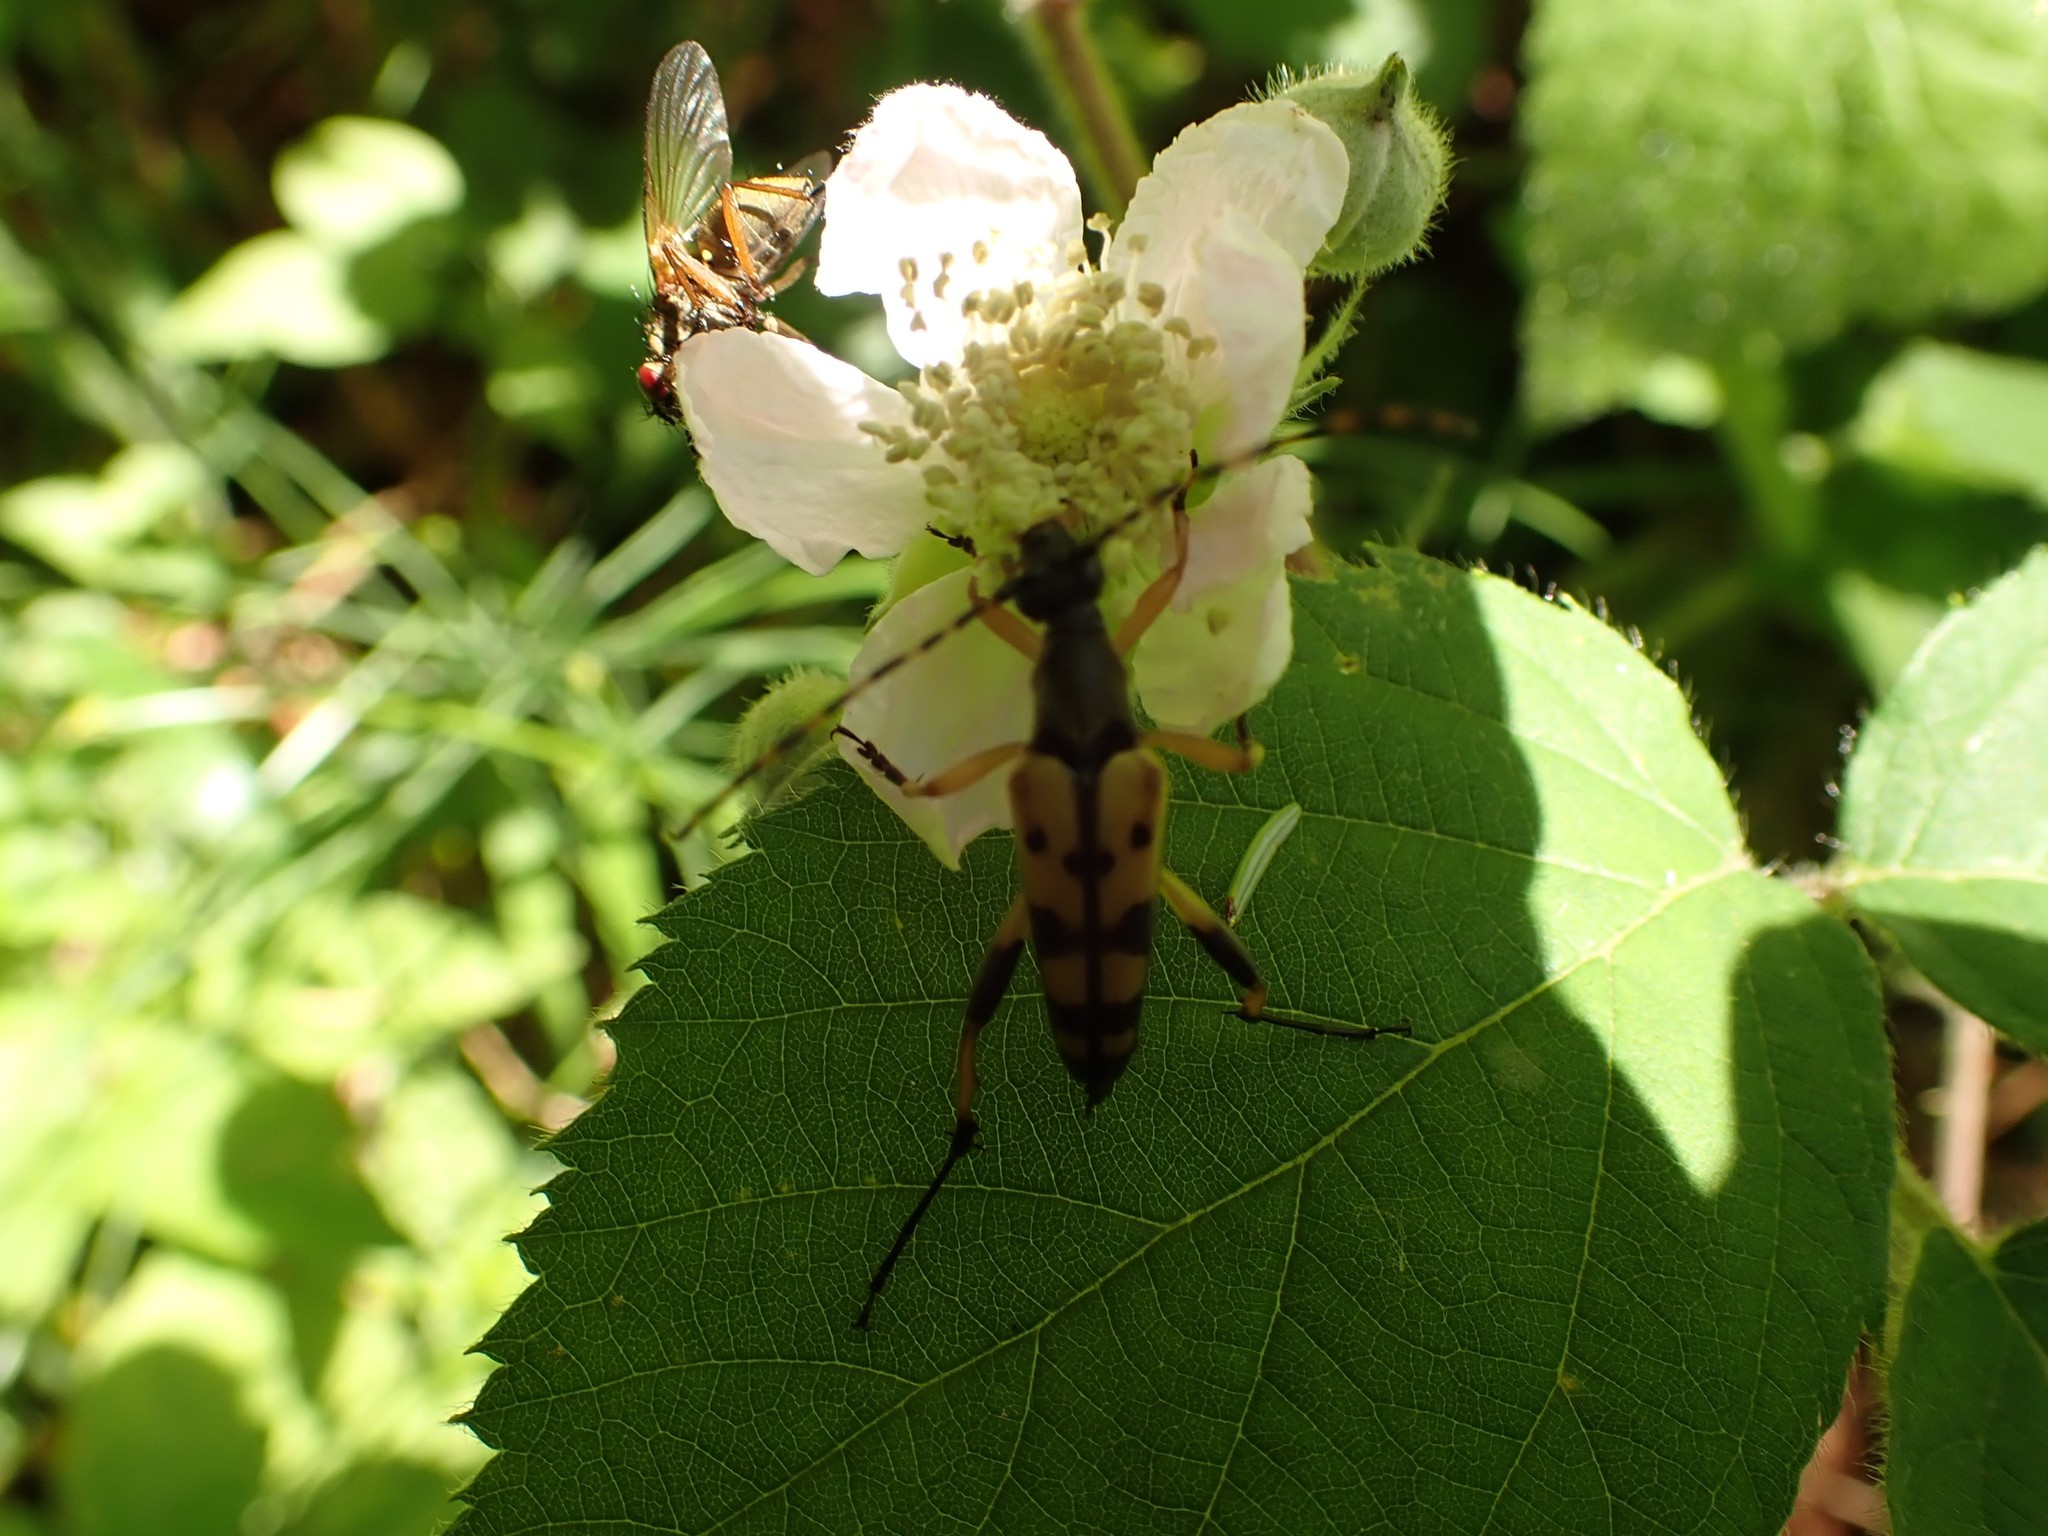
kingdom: Animalia
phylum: Arthropoda
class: Insecta
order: Coleoptera
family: Cerambycidae
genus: Rutpela
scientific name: Rutpela maculata
